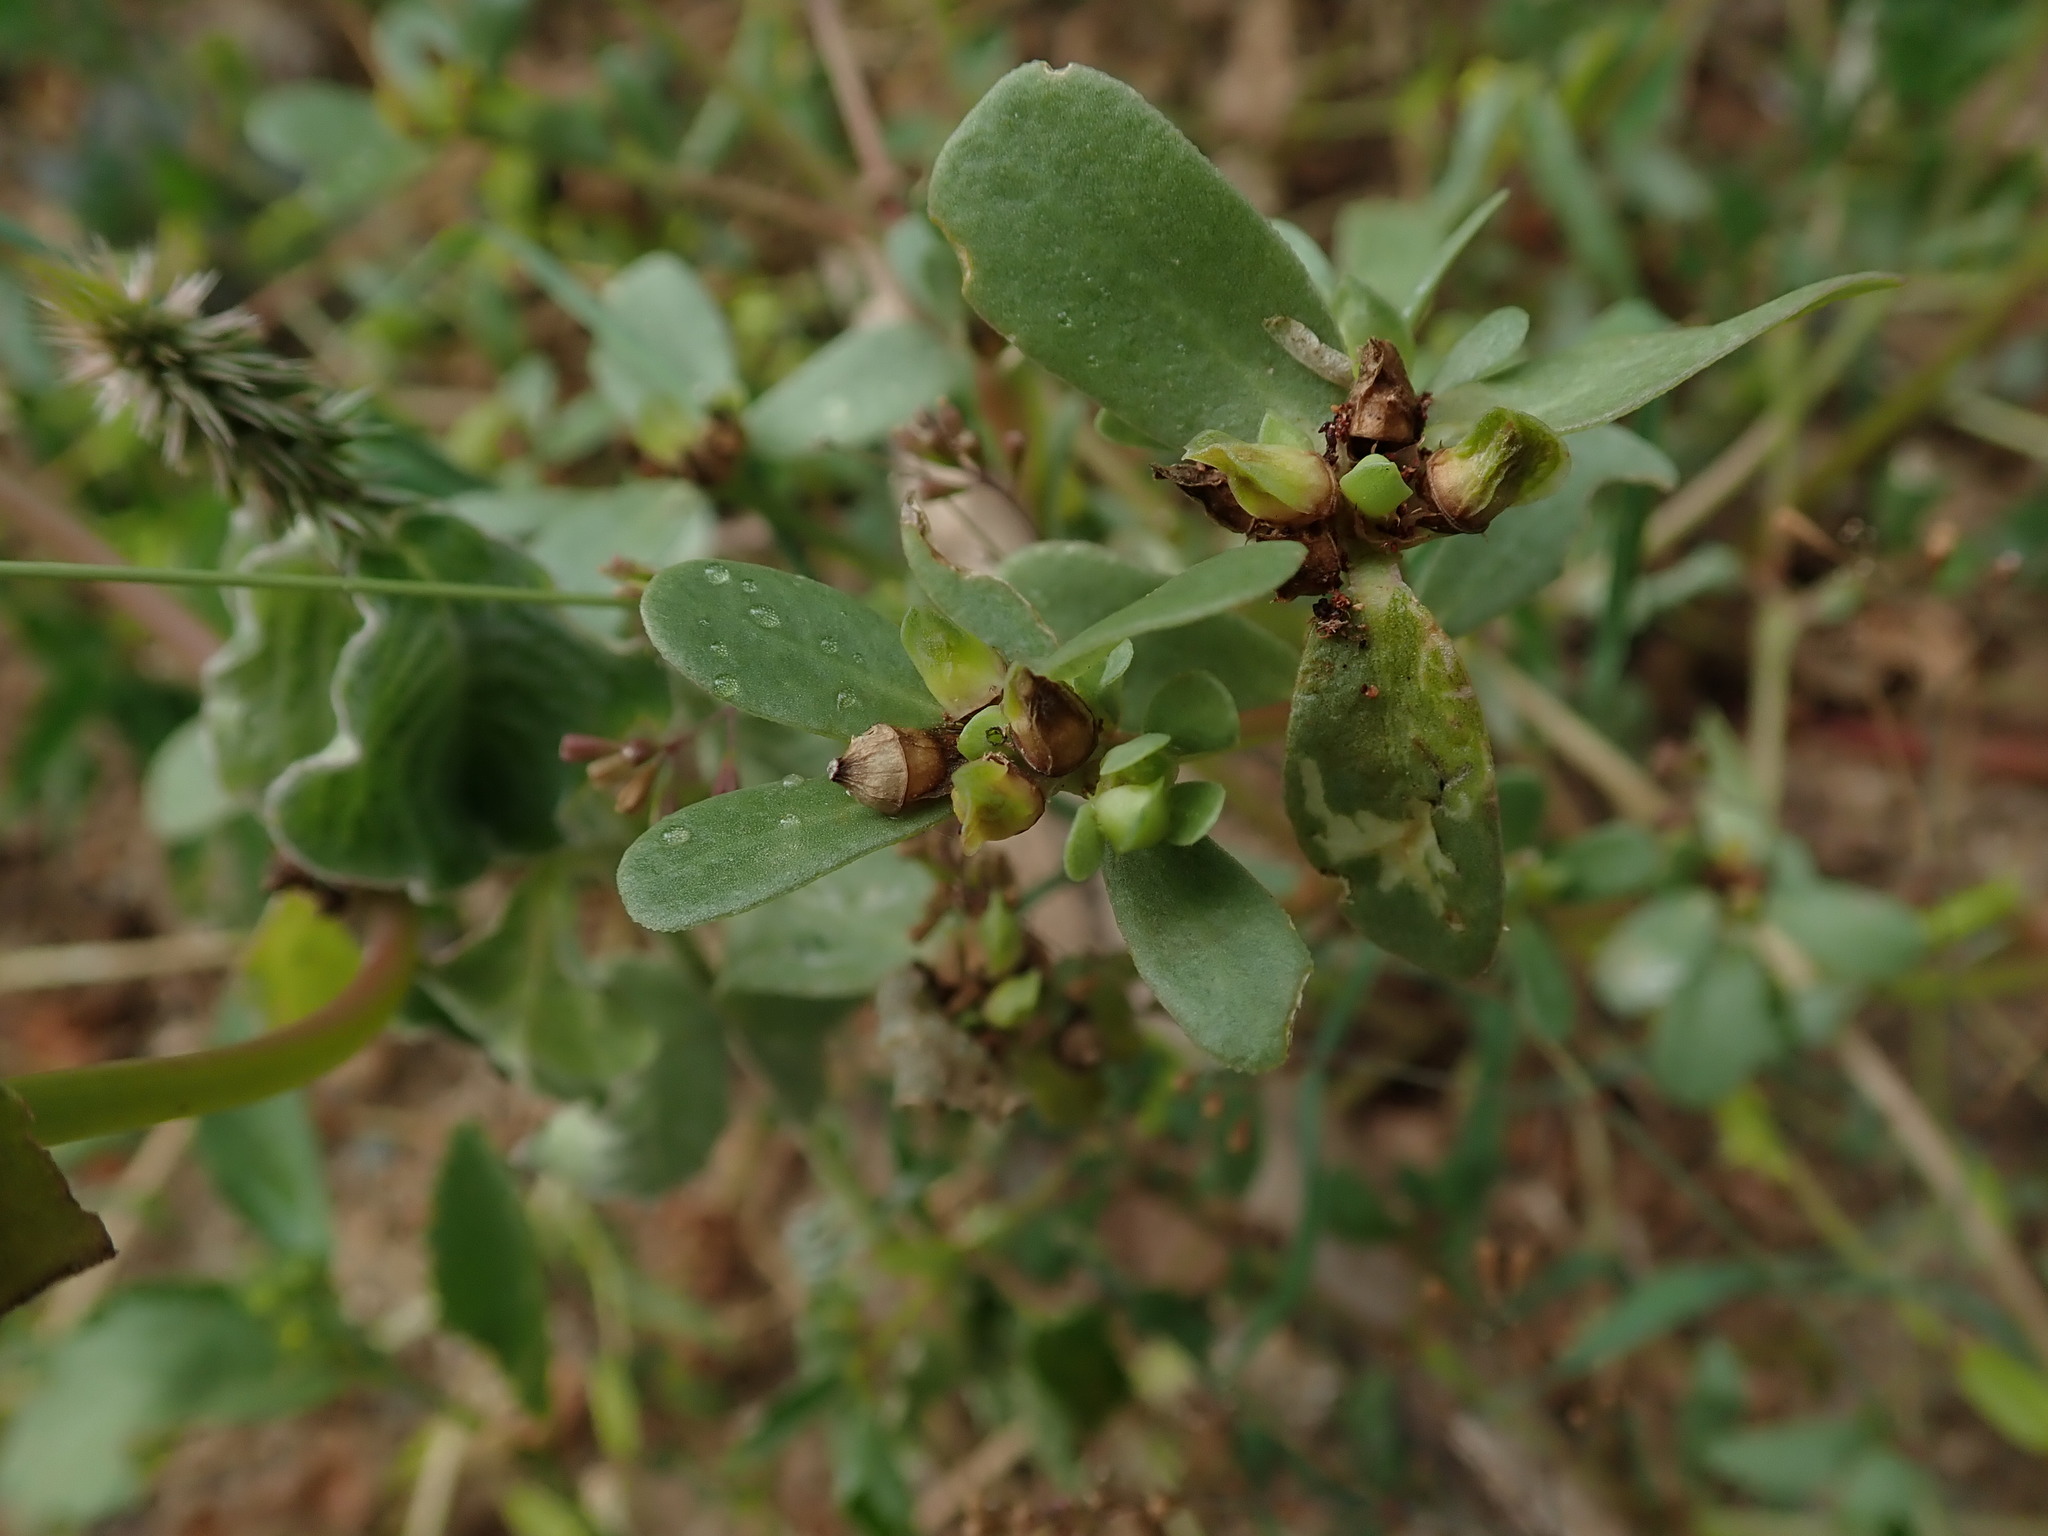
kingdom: Plantae
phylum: Tracheophyta
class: Magnoliopsida
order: Caryophyllales
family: Portulacaceae
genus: Portulaca
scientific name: Portulaca oleracea
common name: Common purslane
